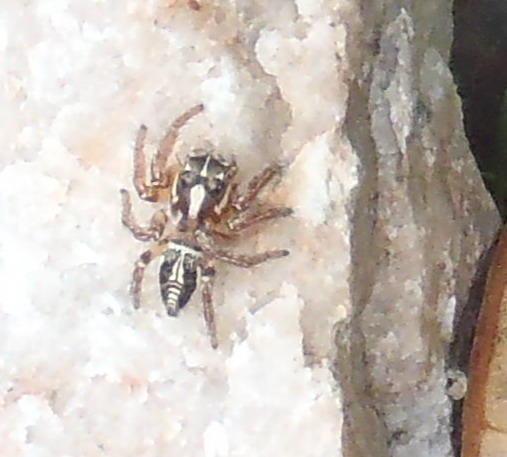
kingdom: Animalia
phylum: Arthropoda
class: Arachnida
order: Araneae
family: Salticidae
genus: Hyllus
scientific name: Hyllus argyrotoxus
